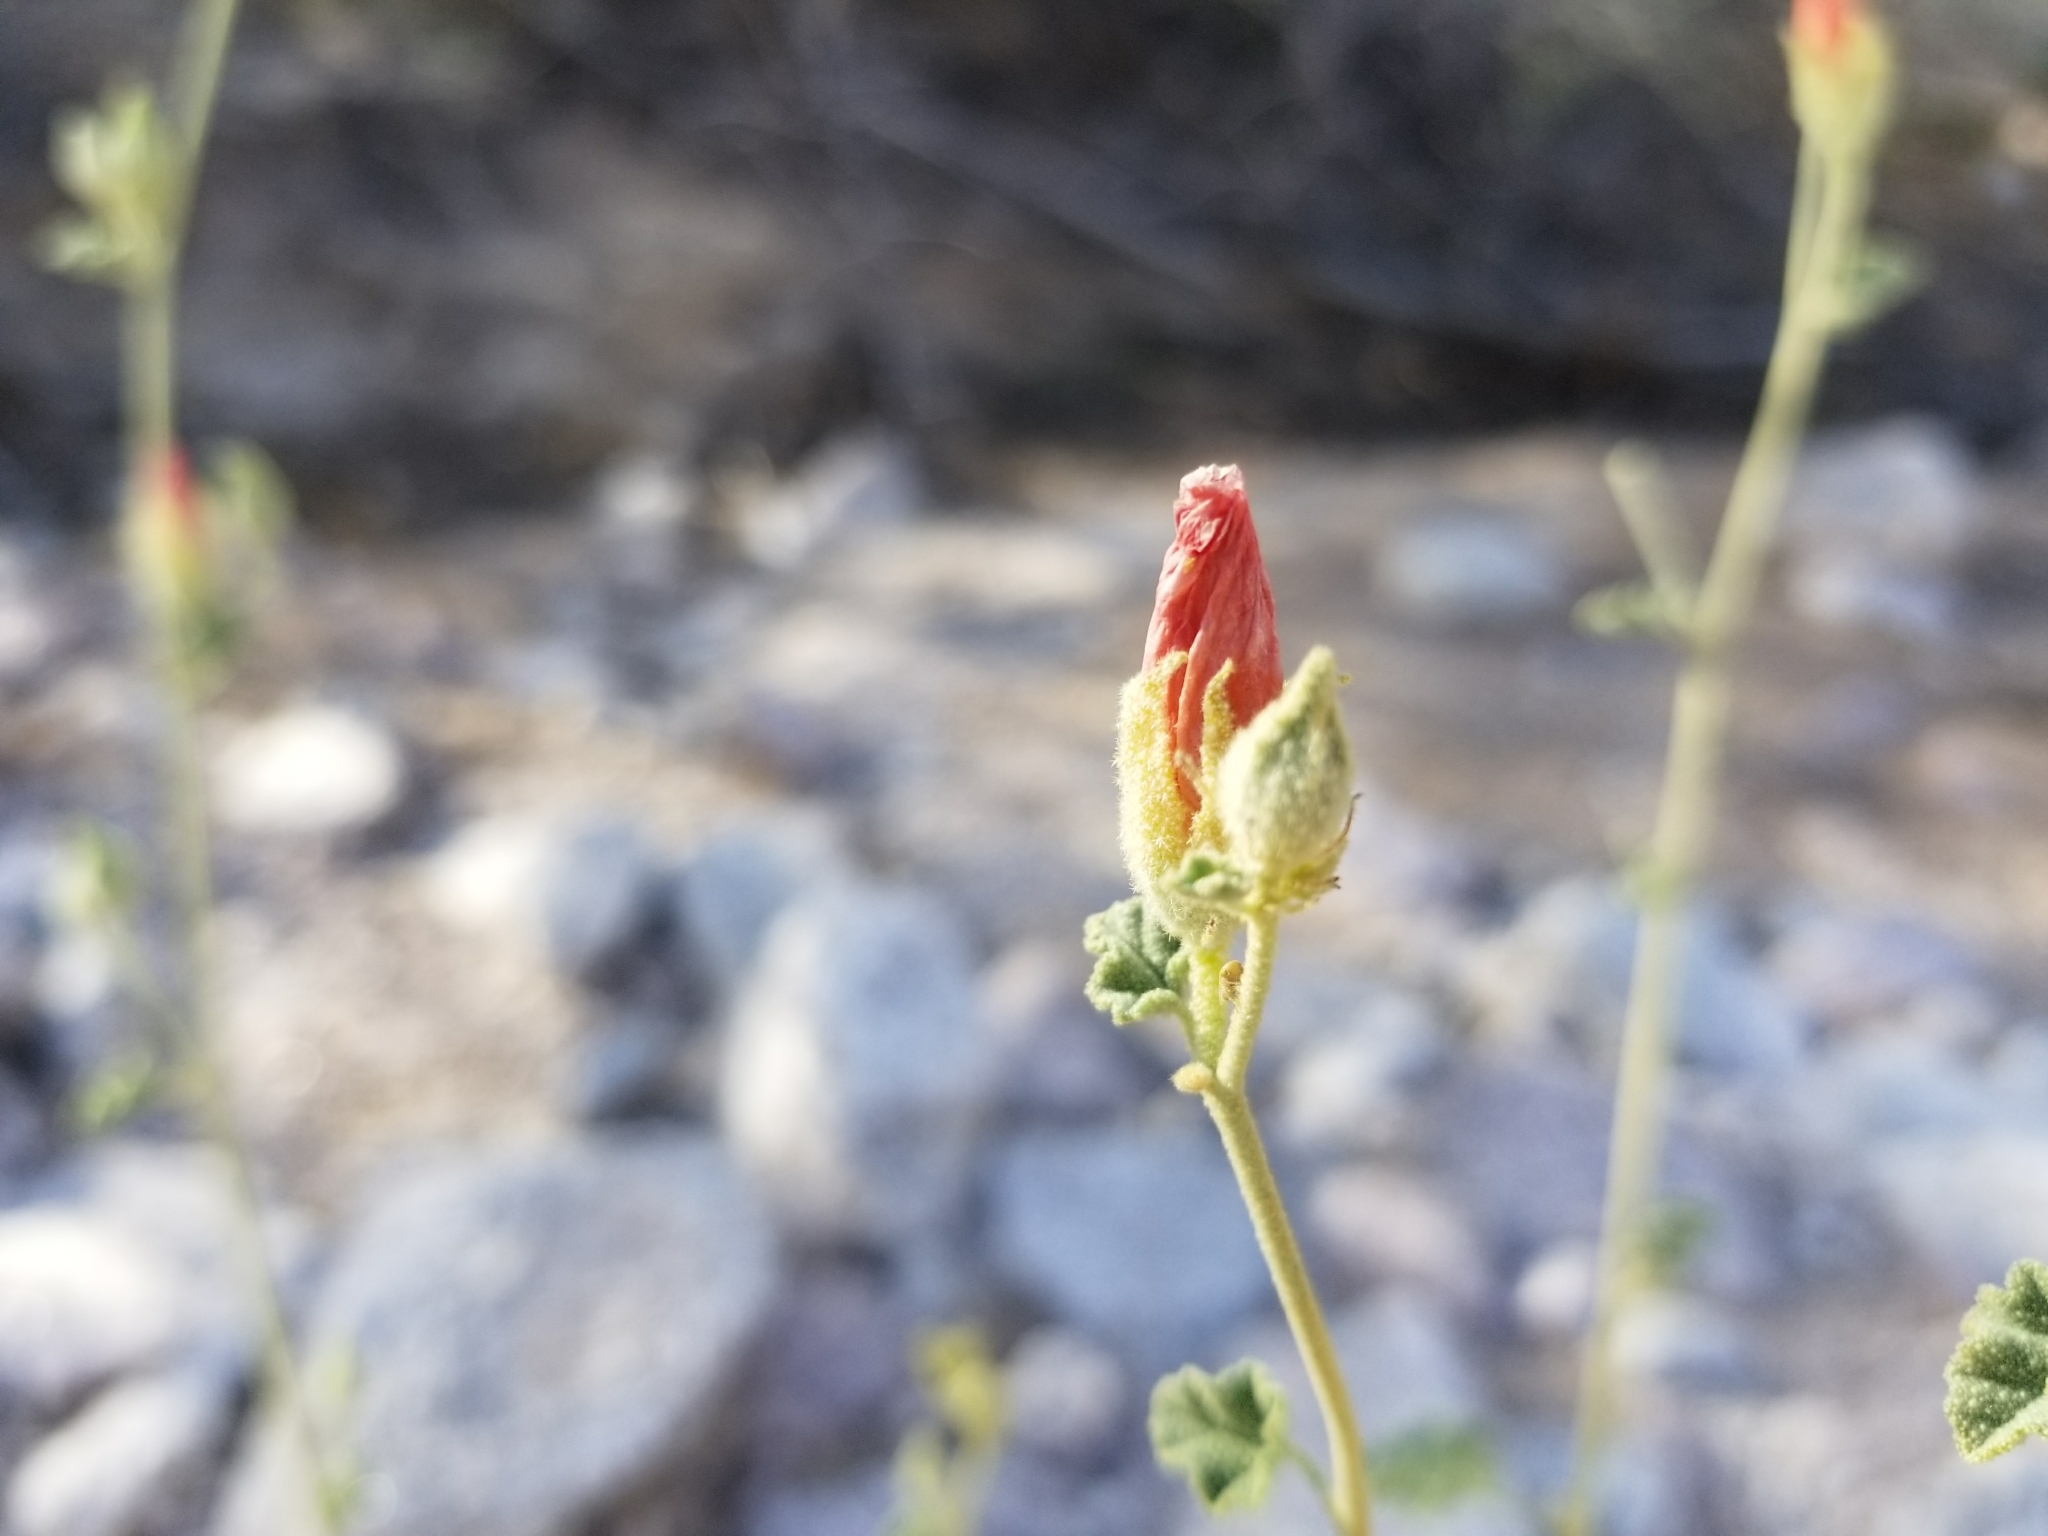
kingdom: Plantae
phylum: Tracheophyta
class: Magnoliopsida
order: Malvales
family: Malvaceae
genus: Sphaeralcea
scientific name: Sphaeralcea ambigua
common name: Apricot globe-mallow
